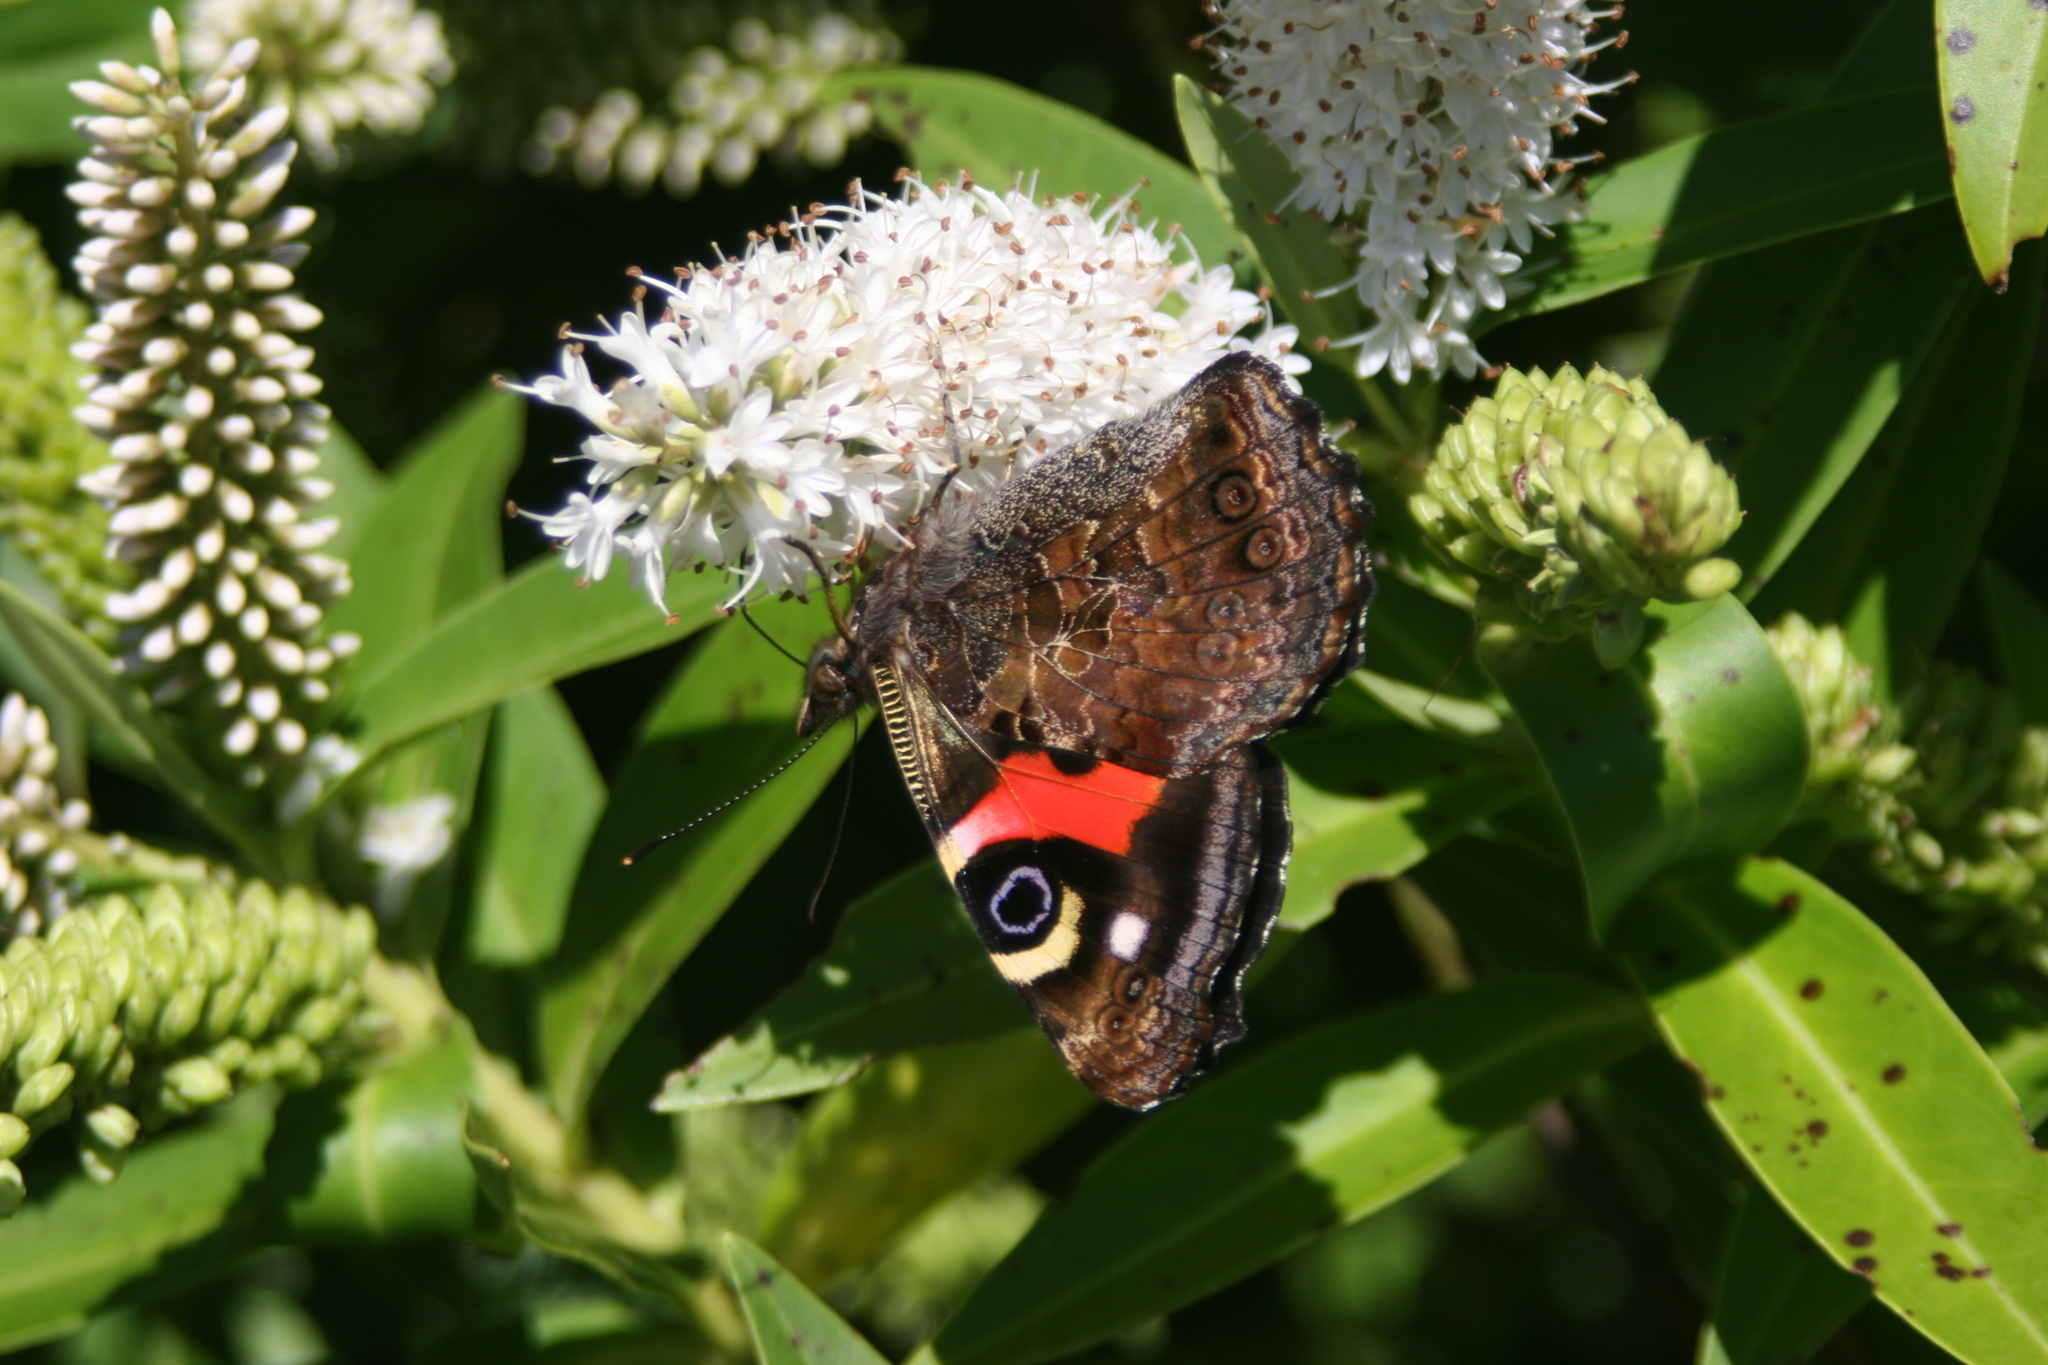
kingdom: Animalia
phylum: Arthropoda
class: Insecta
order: Lepidoptera
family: Nymphalidae
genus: Vanessa
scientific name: Vanessa gonerilla
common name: New zealand red admiral
